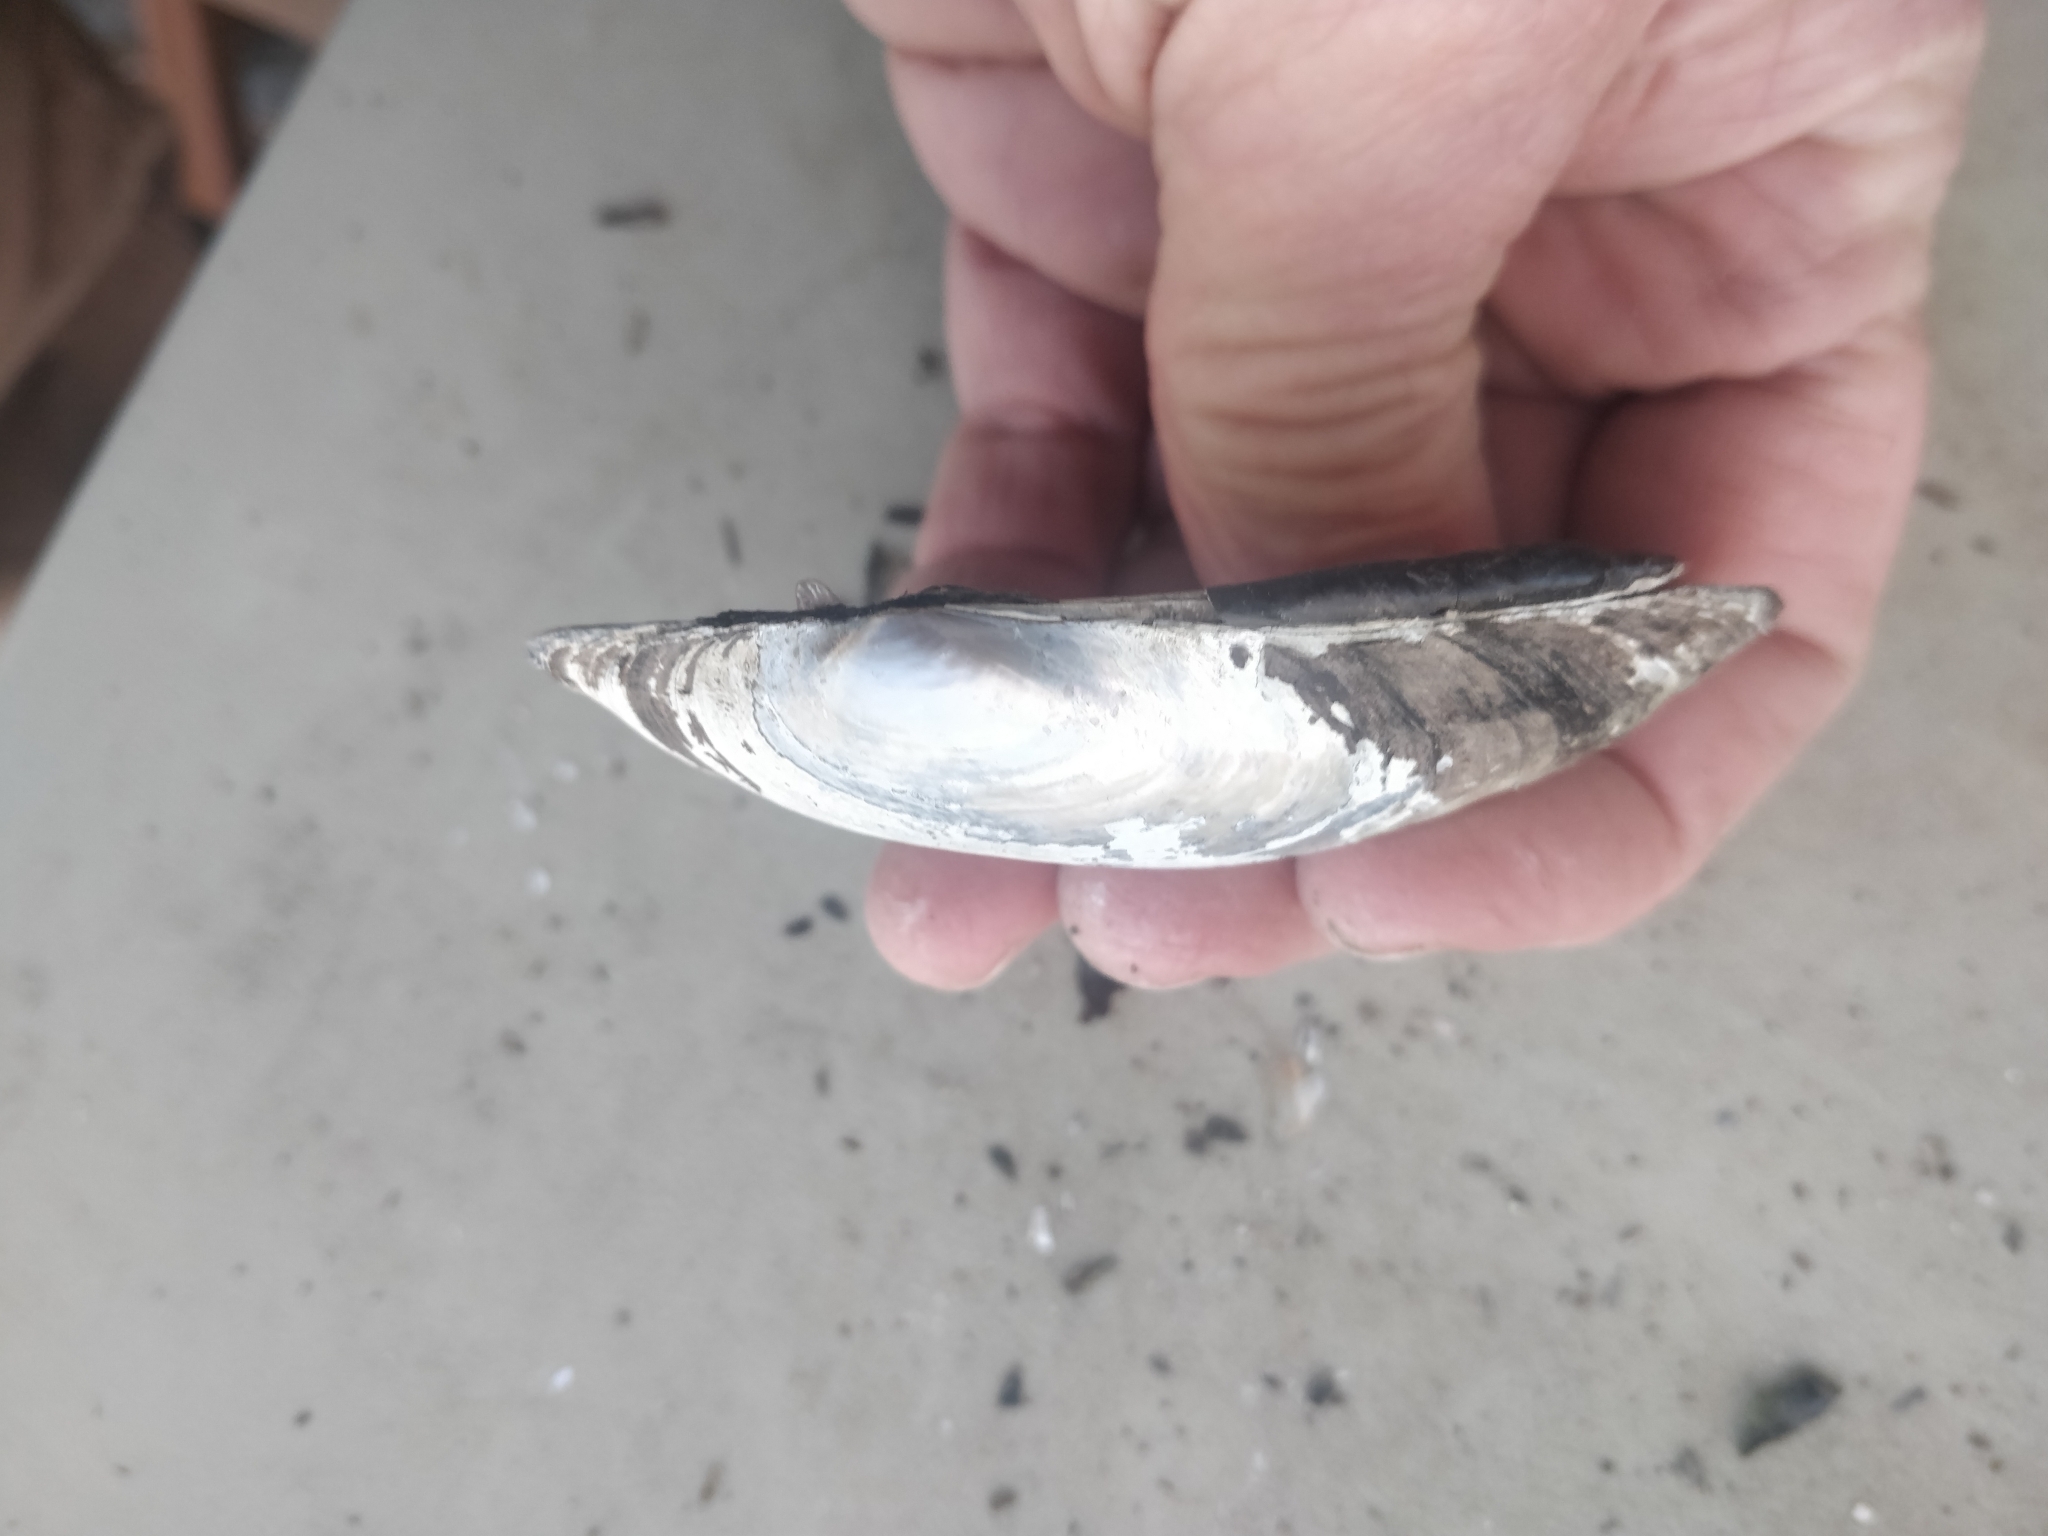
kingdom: Animalia
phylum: Mollusca
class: Bivalvia
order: Unionida
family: Unionidae
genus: Lampsilis
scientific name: Lampsilis siliquoidea
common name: Fatmucket
